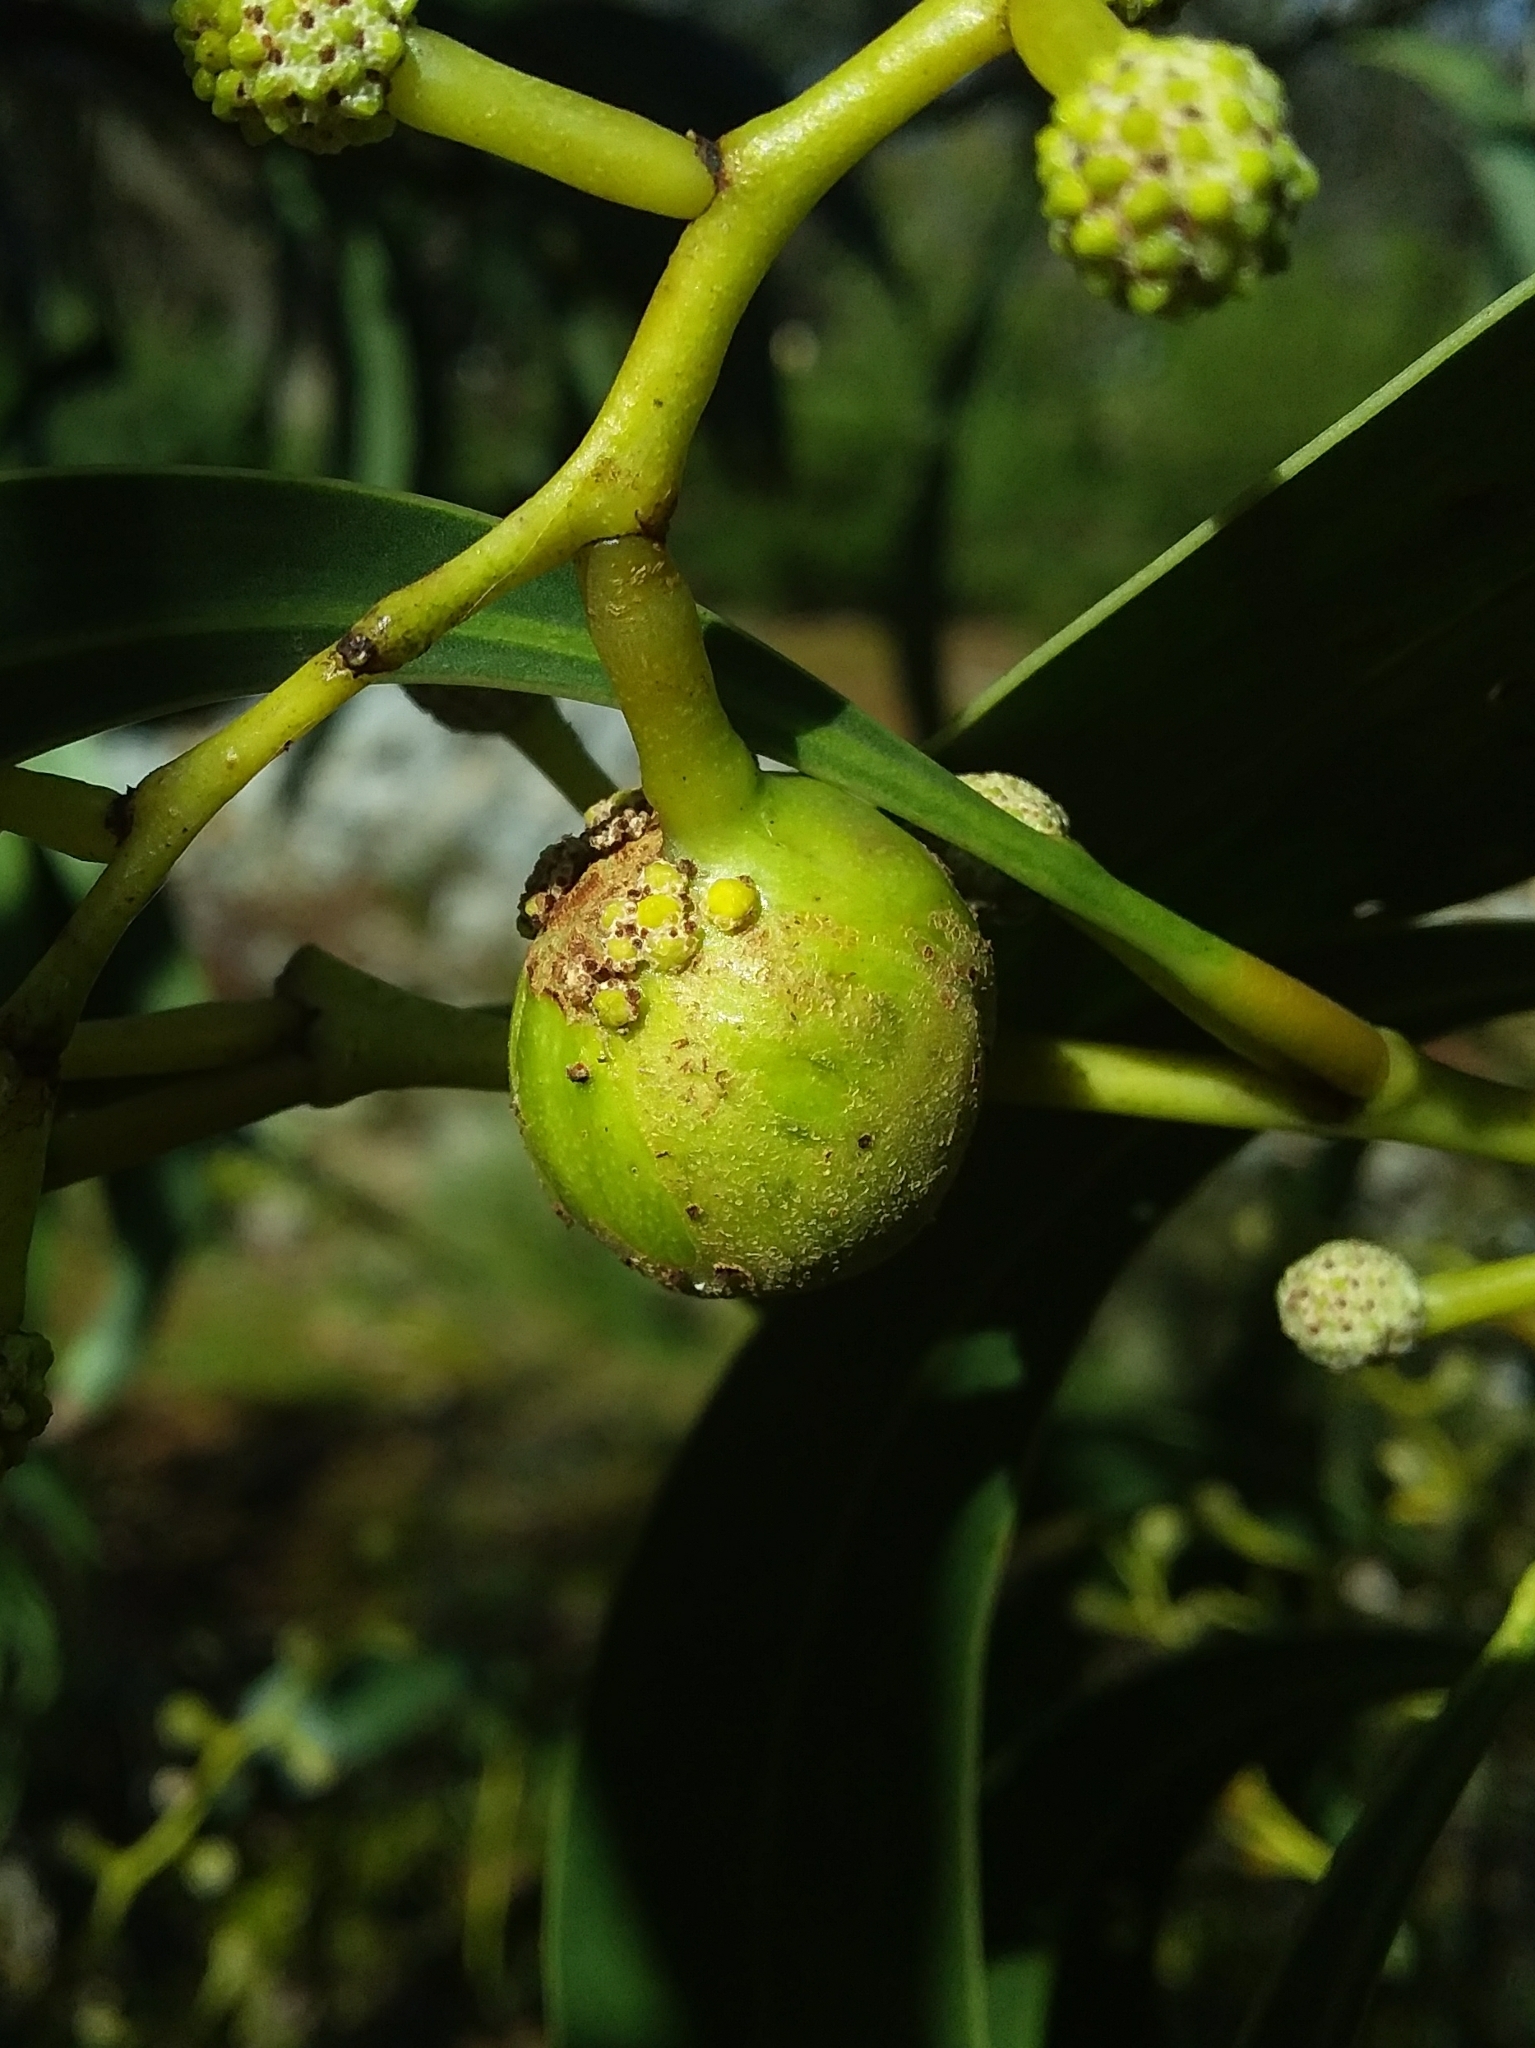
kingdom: Animalia
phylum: Arthropoda
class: Insecta
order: Hymenoptera
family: Pteromalidae
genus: Trichilogaster
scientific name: Trichilogaster signiventris
